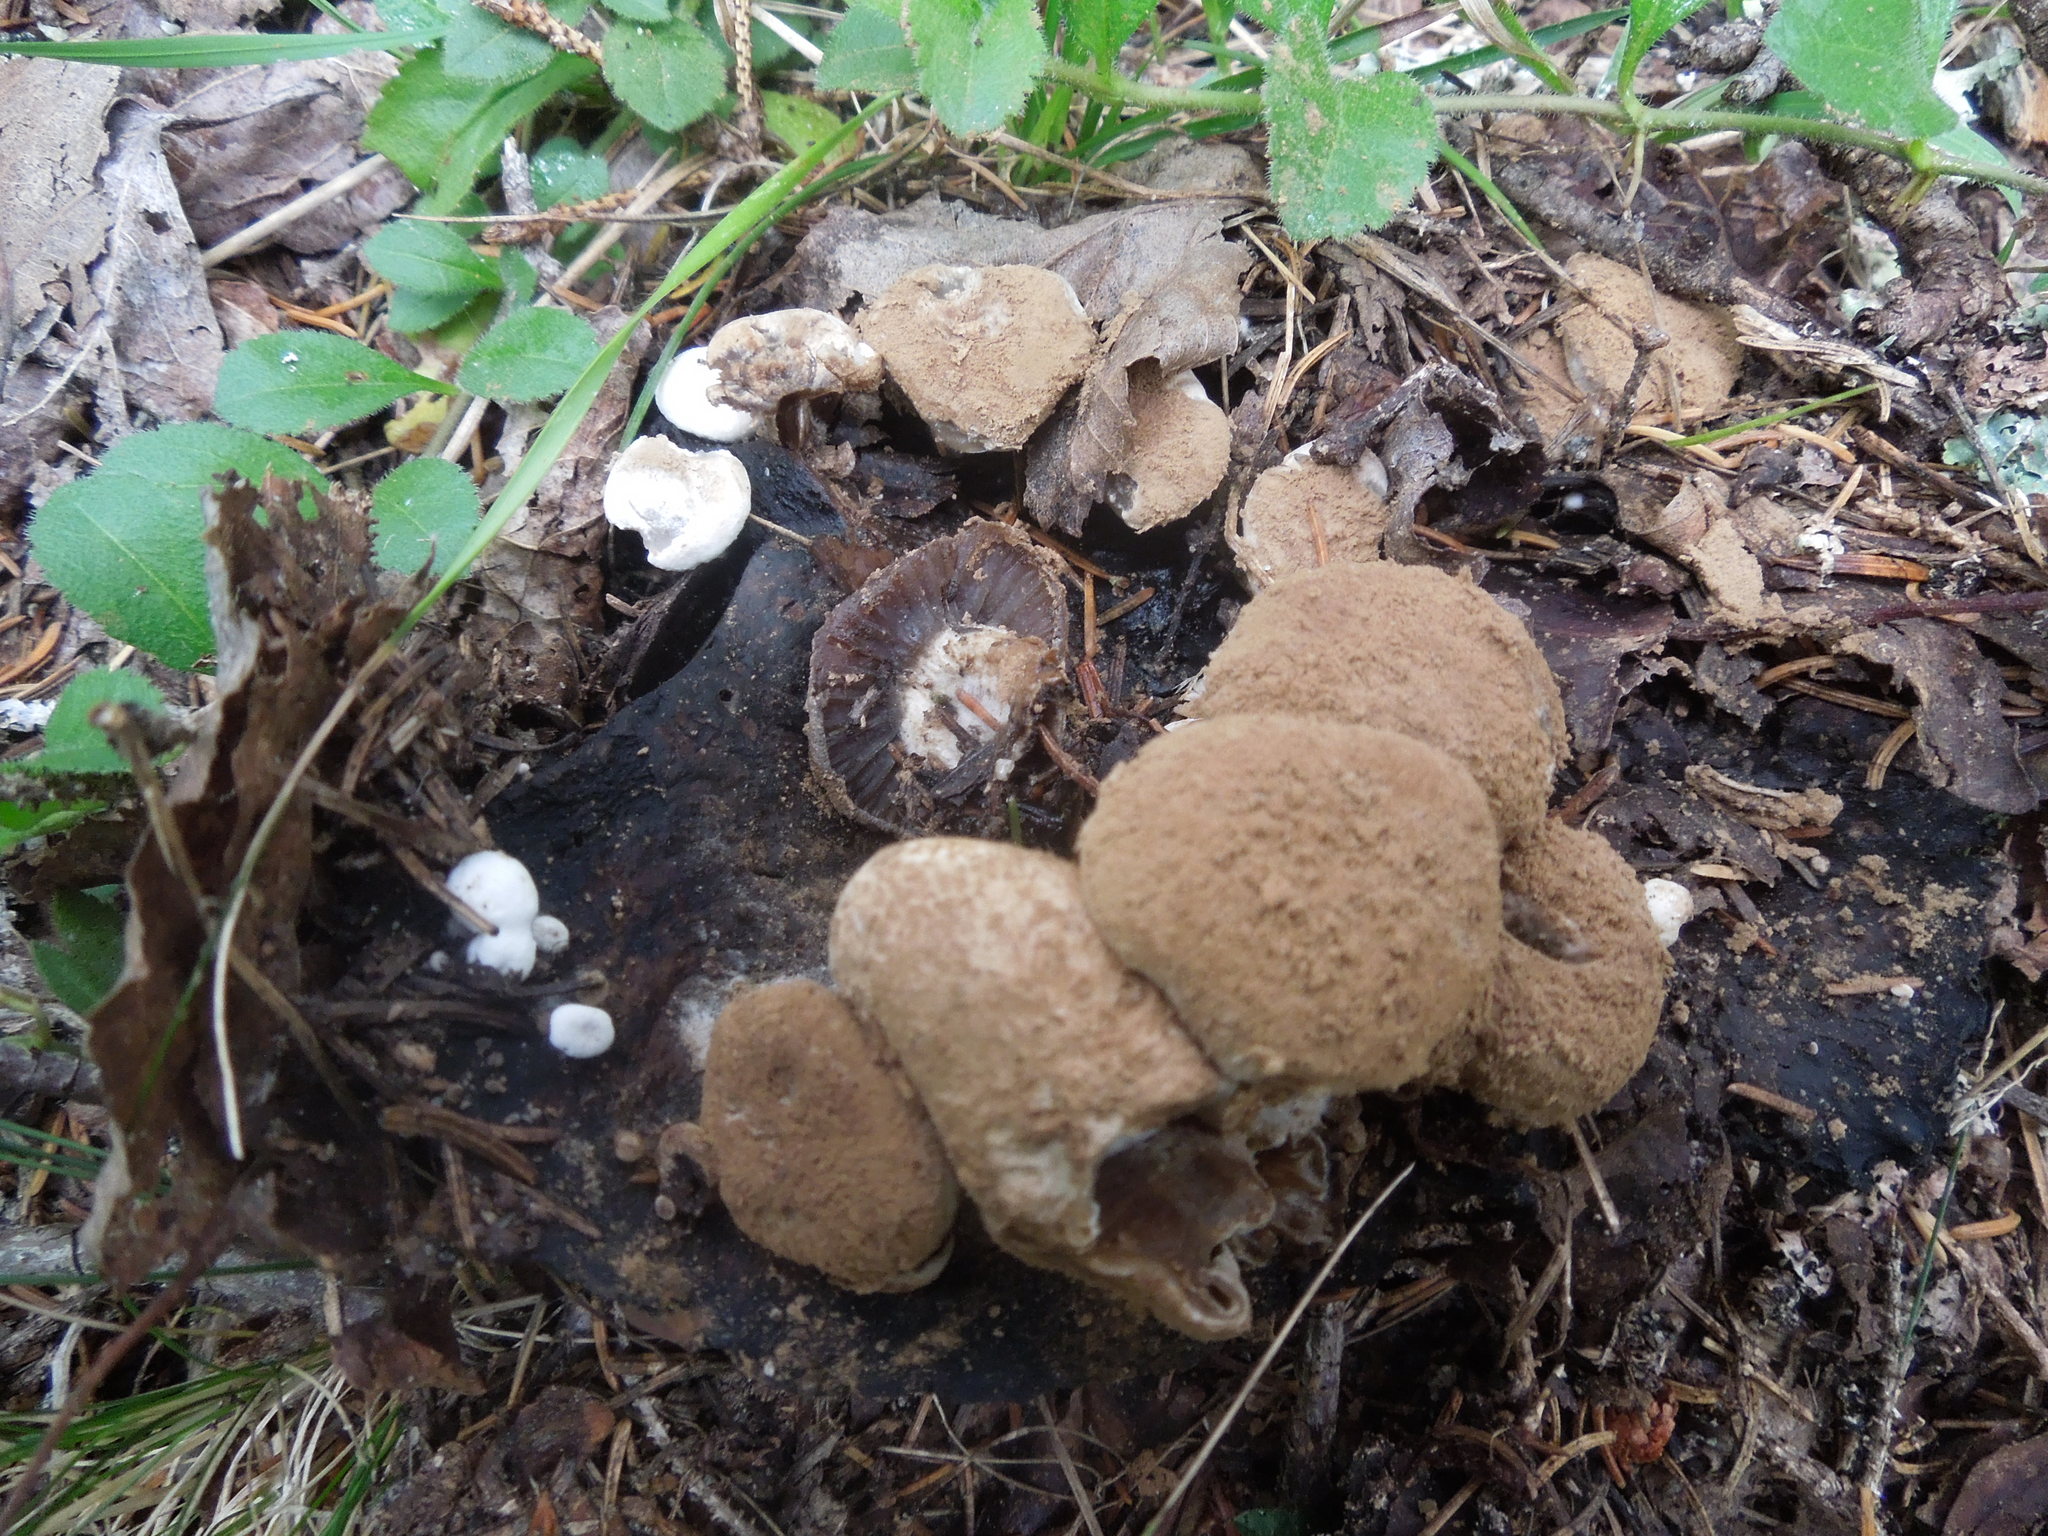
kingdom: Fungi
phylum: Basidiomycota
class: Agaricomycetes
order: Agaricales
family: Lyophyllaceae
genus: Asterophora
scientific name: Asterophora lycoperdoides
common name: Pick-a-back toadstool
